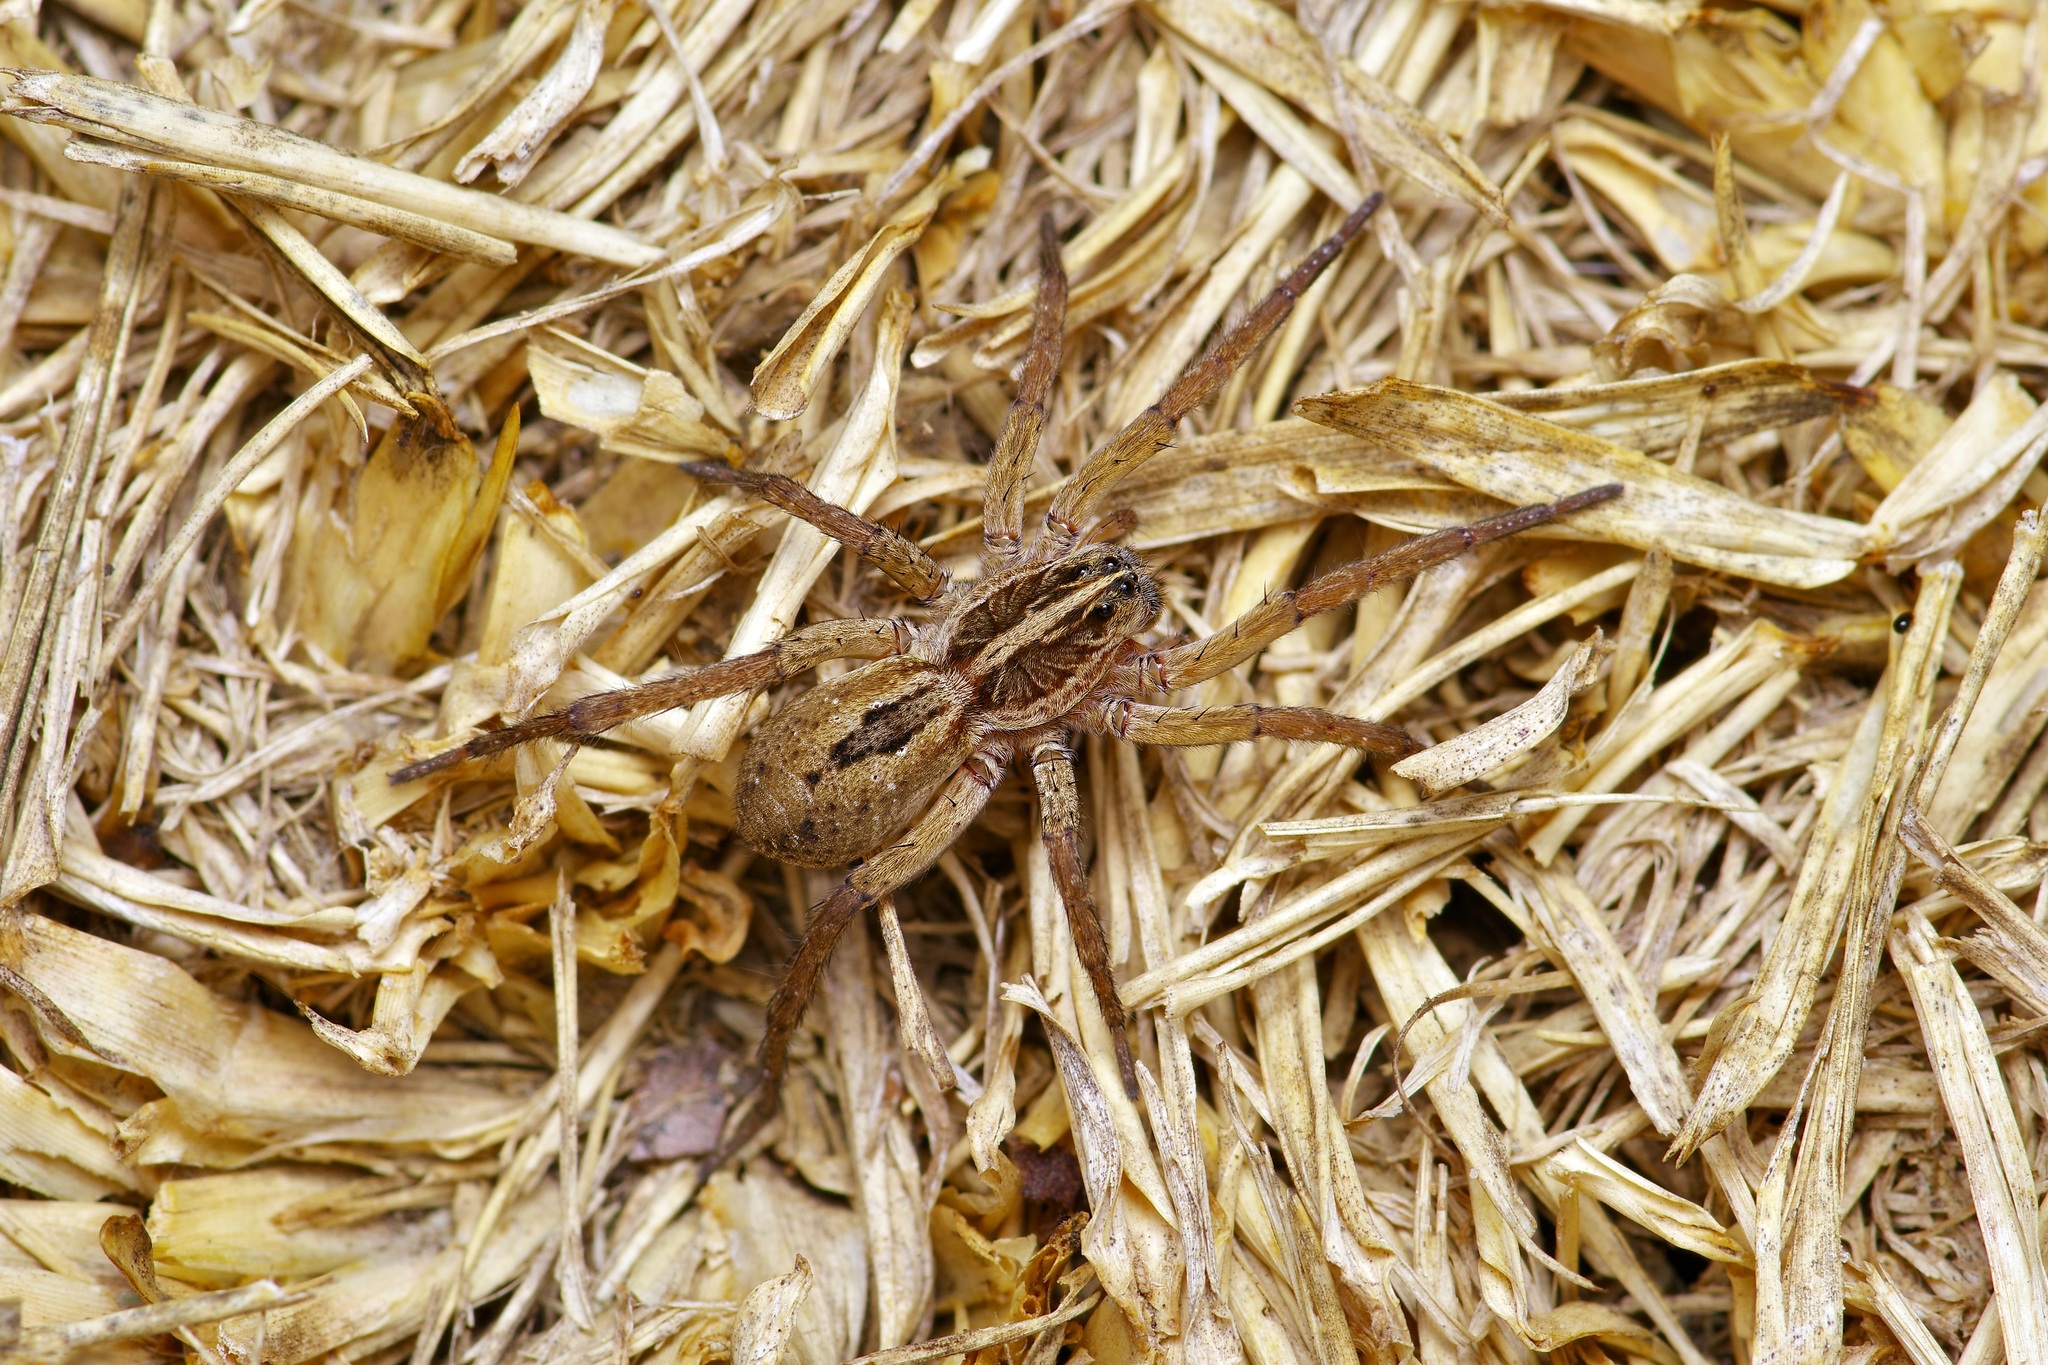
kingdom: Animalia
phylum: Arthropoda
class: Arachnida
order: Araneae
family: Lycosidae
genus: Tigrosa
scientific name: Tigrosa annexa
